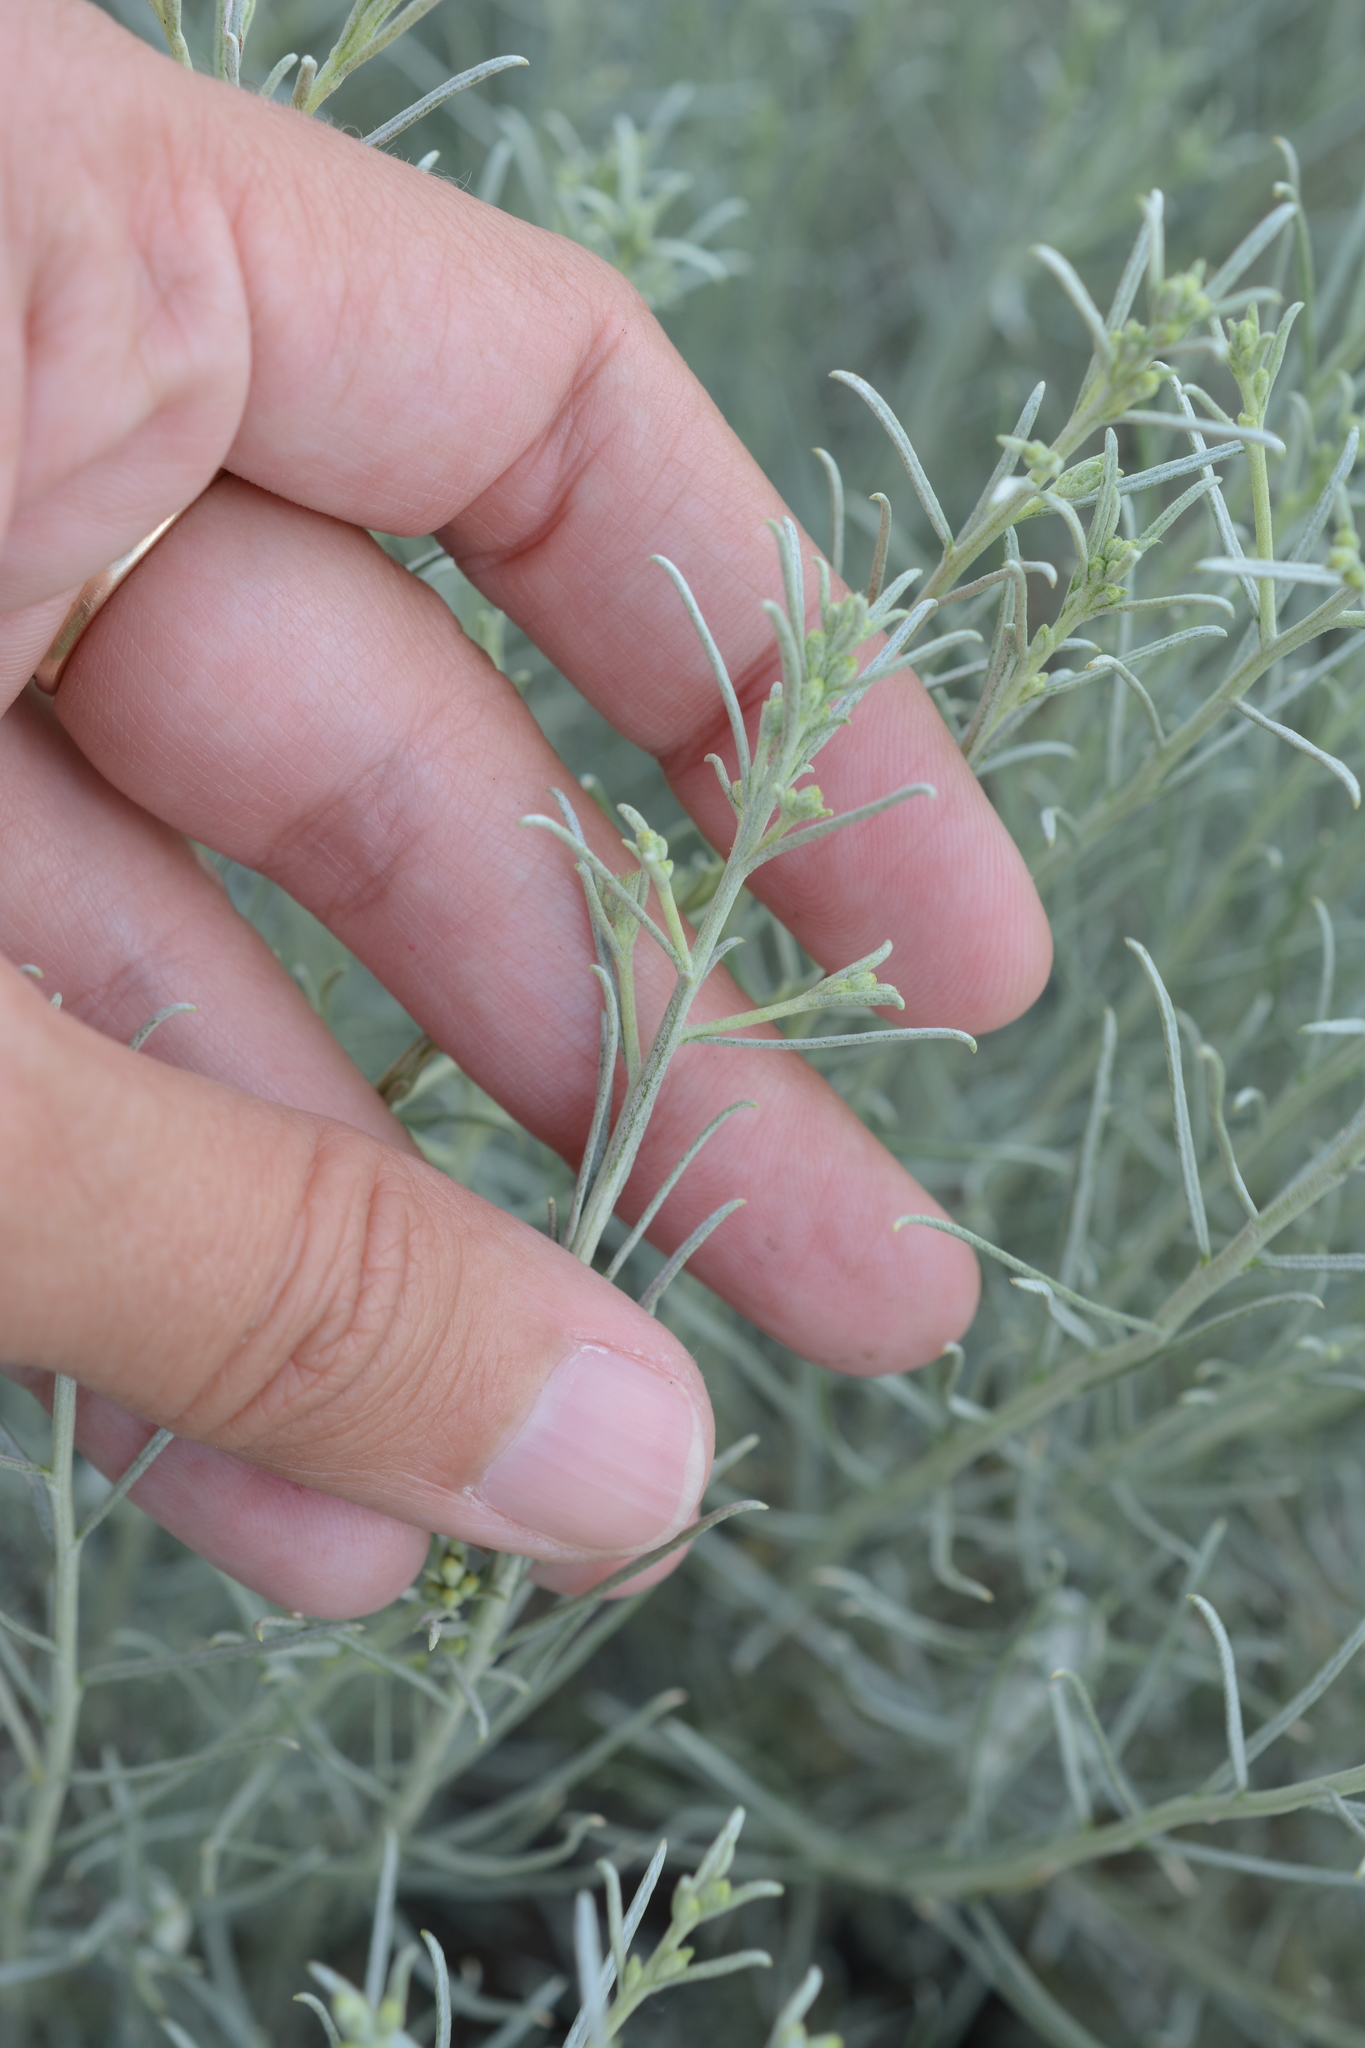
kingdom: Plantae
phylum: Tracheophyta
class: Magnoliopsida
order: Asterales
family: Asteraceae
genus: Ericameria
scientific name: Ericameria nauseosa
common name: Rubber rabbitbrush
